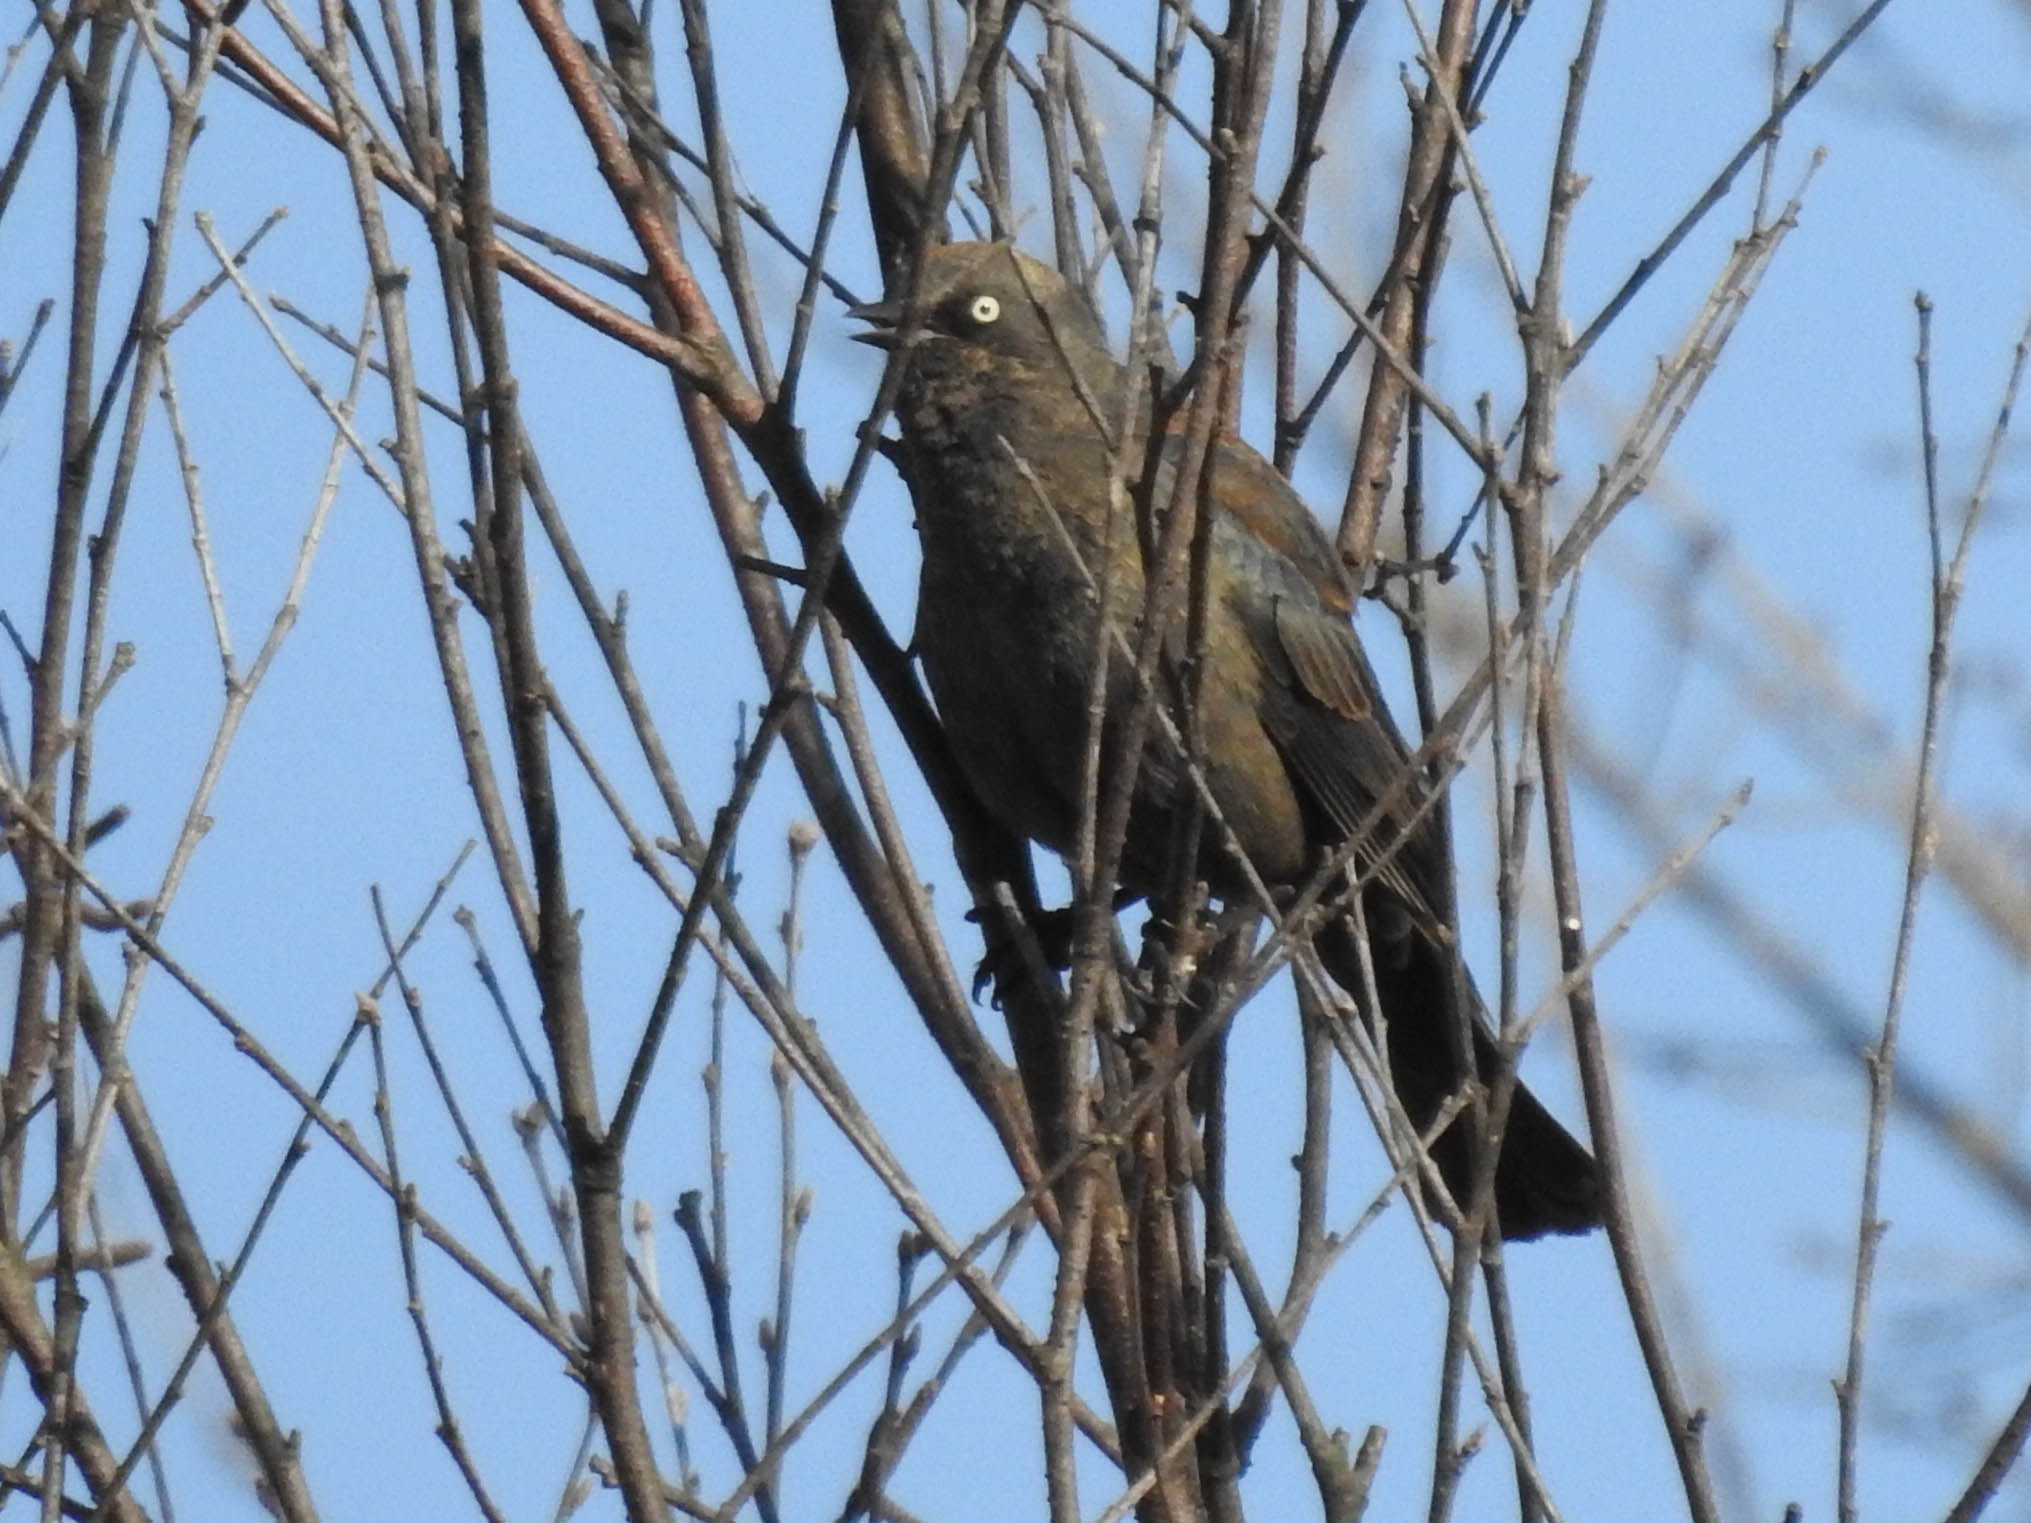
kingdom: Animalia
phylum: Chordata
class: Aves
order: Passeriformes
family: Icteridae
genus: Euphagus
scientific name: Euphagus carolinus
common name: Rusty blackbird
